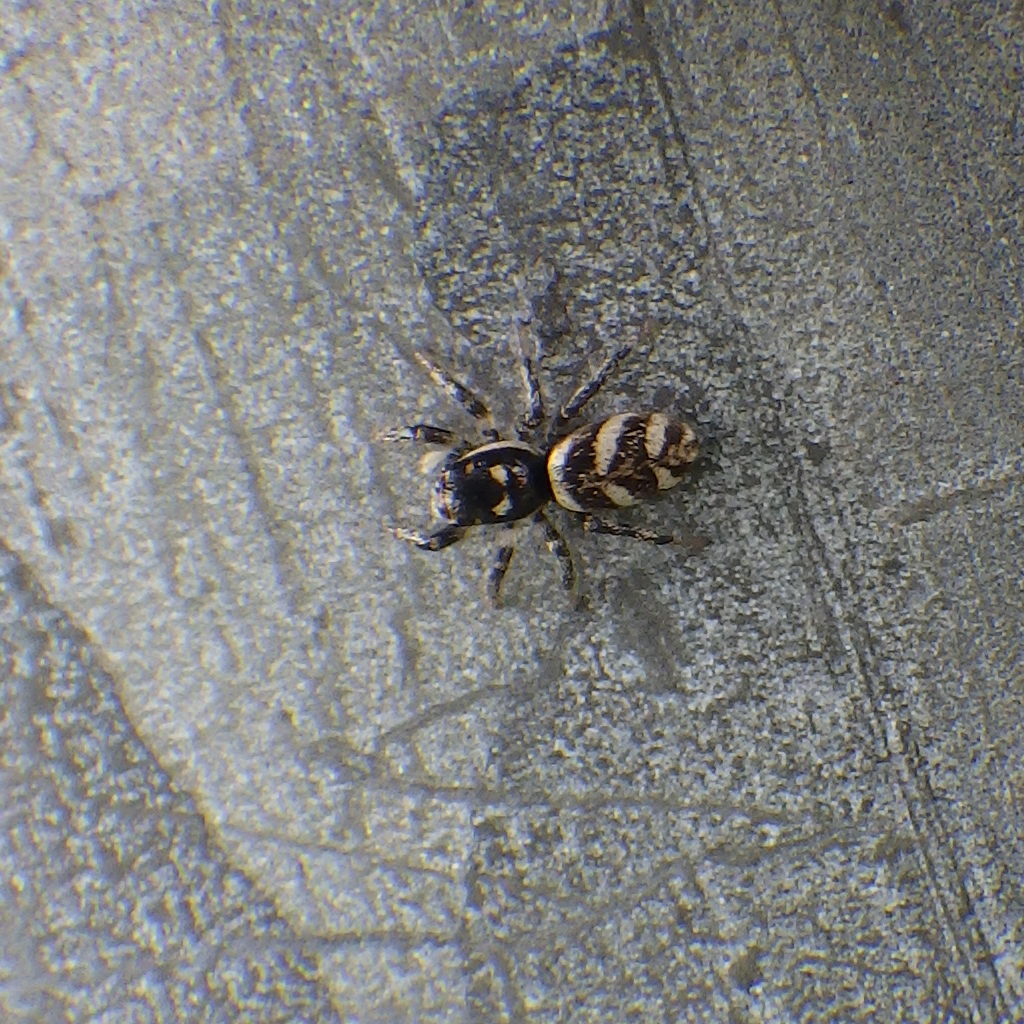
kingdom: Animalia
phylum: Arthropoda
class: Arachnida
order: Araneae
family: Salticidae
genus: Salticus
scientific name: Salticus scenicus
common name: Zebra jumper
